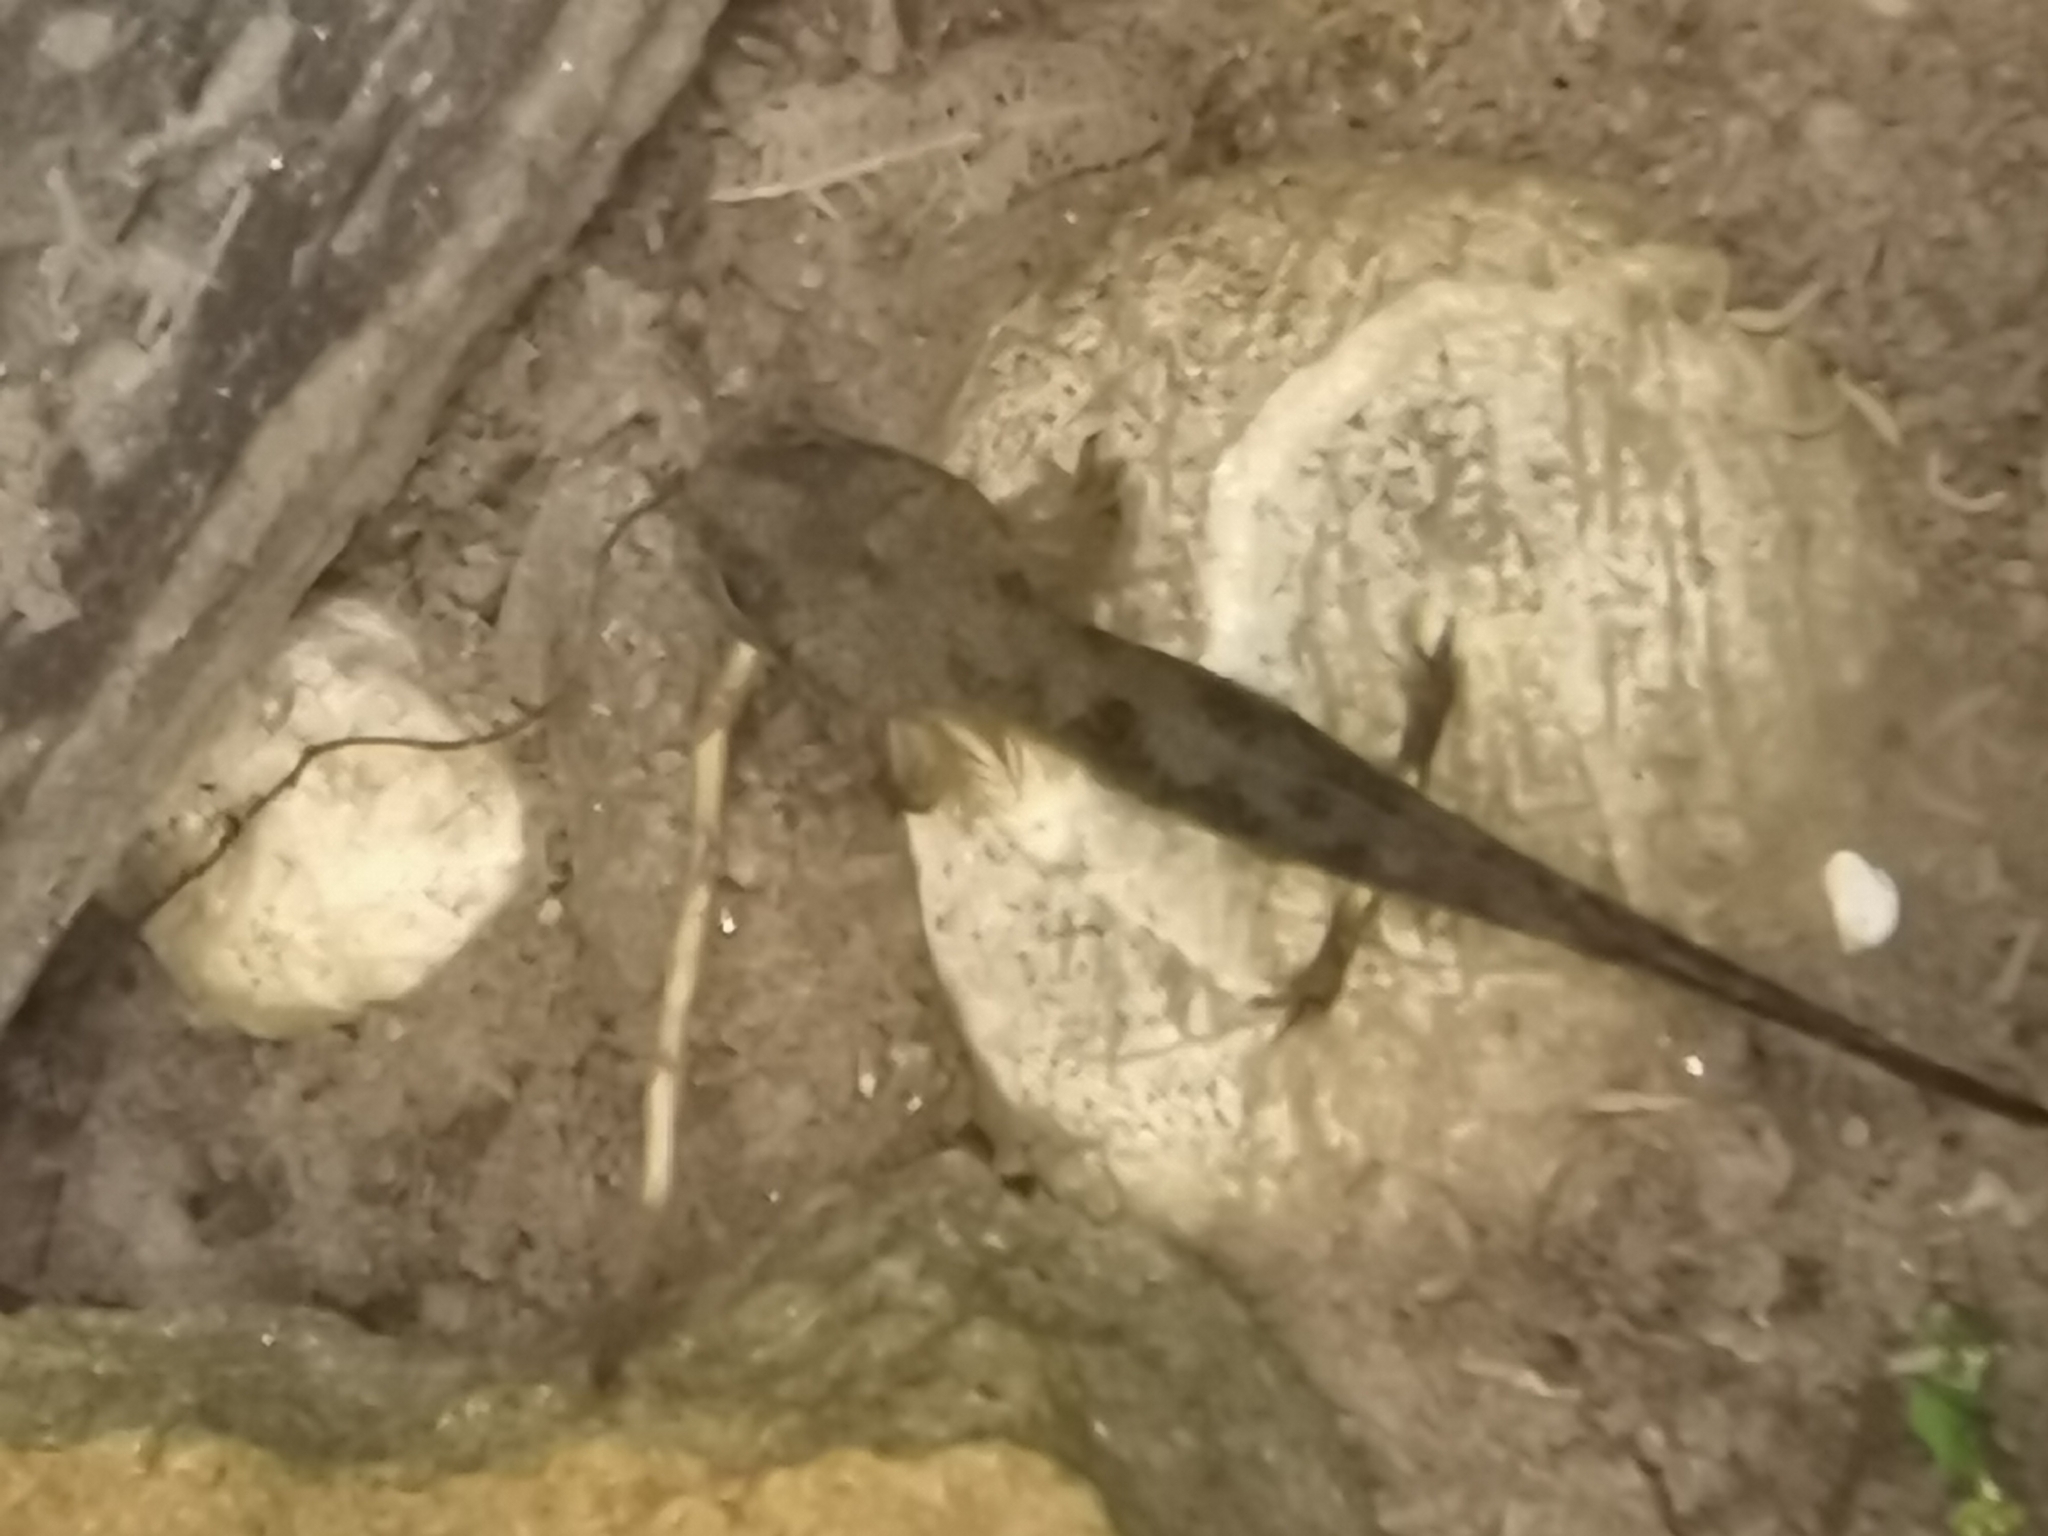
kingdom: Animalia
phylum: Chordata
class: Amphibia
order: Caudata
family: Salamandridae
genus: Salamandra
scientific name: Salamandra salamandra
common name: Fire salamander
